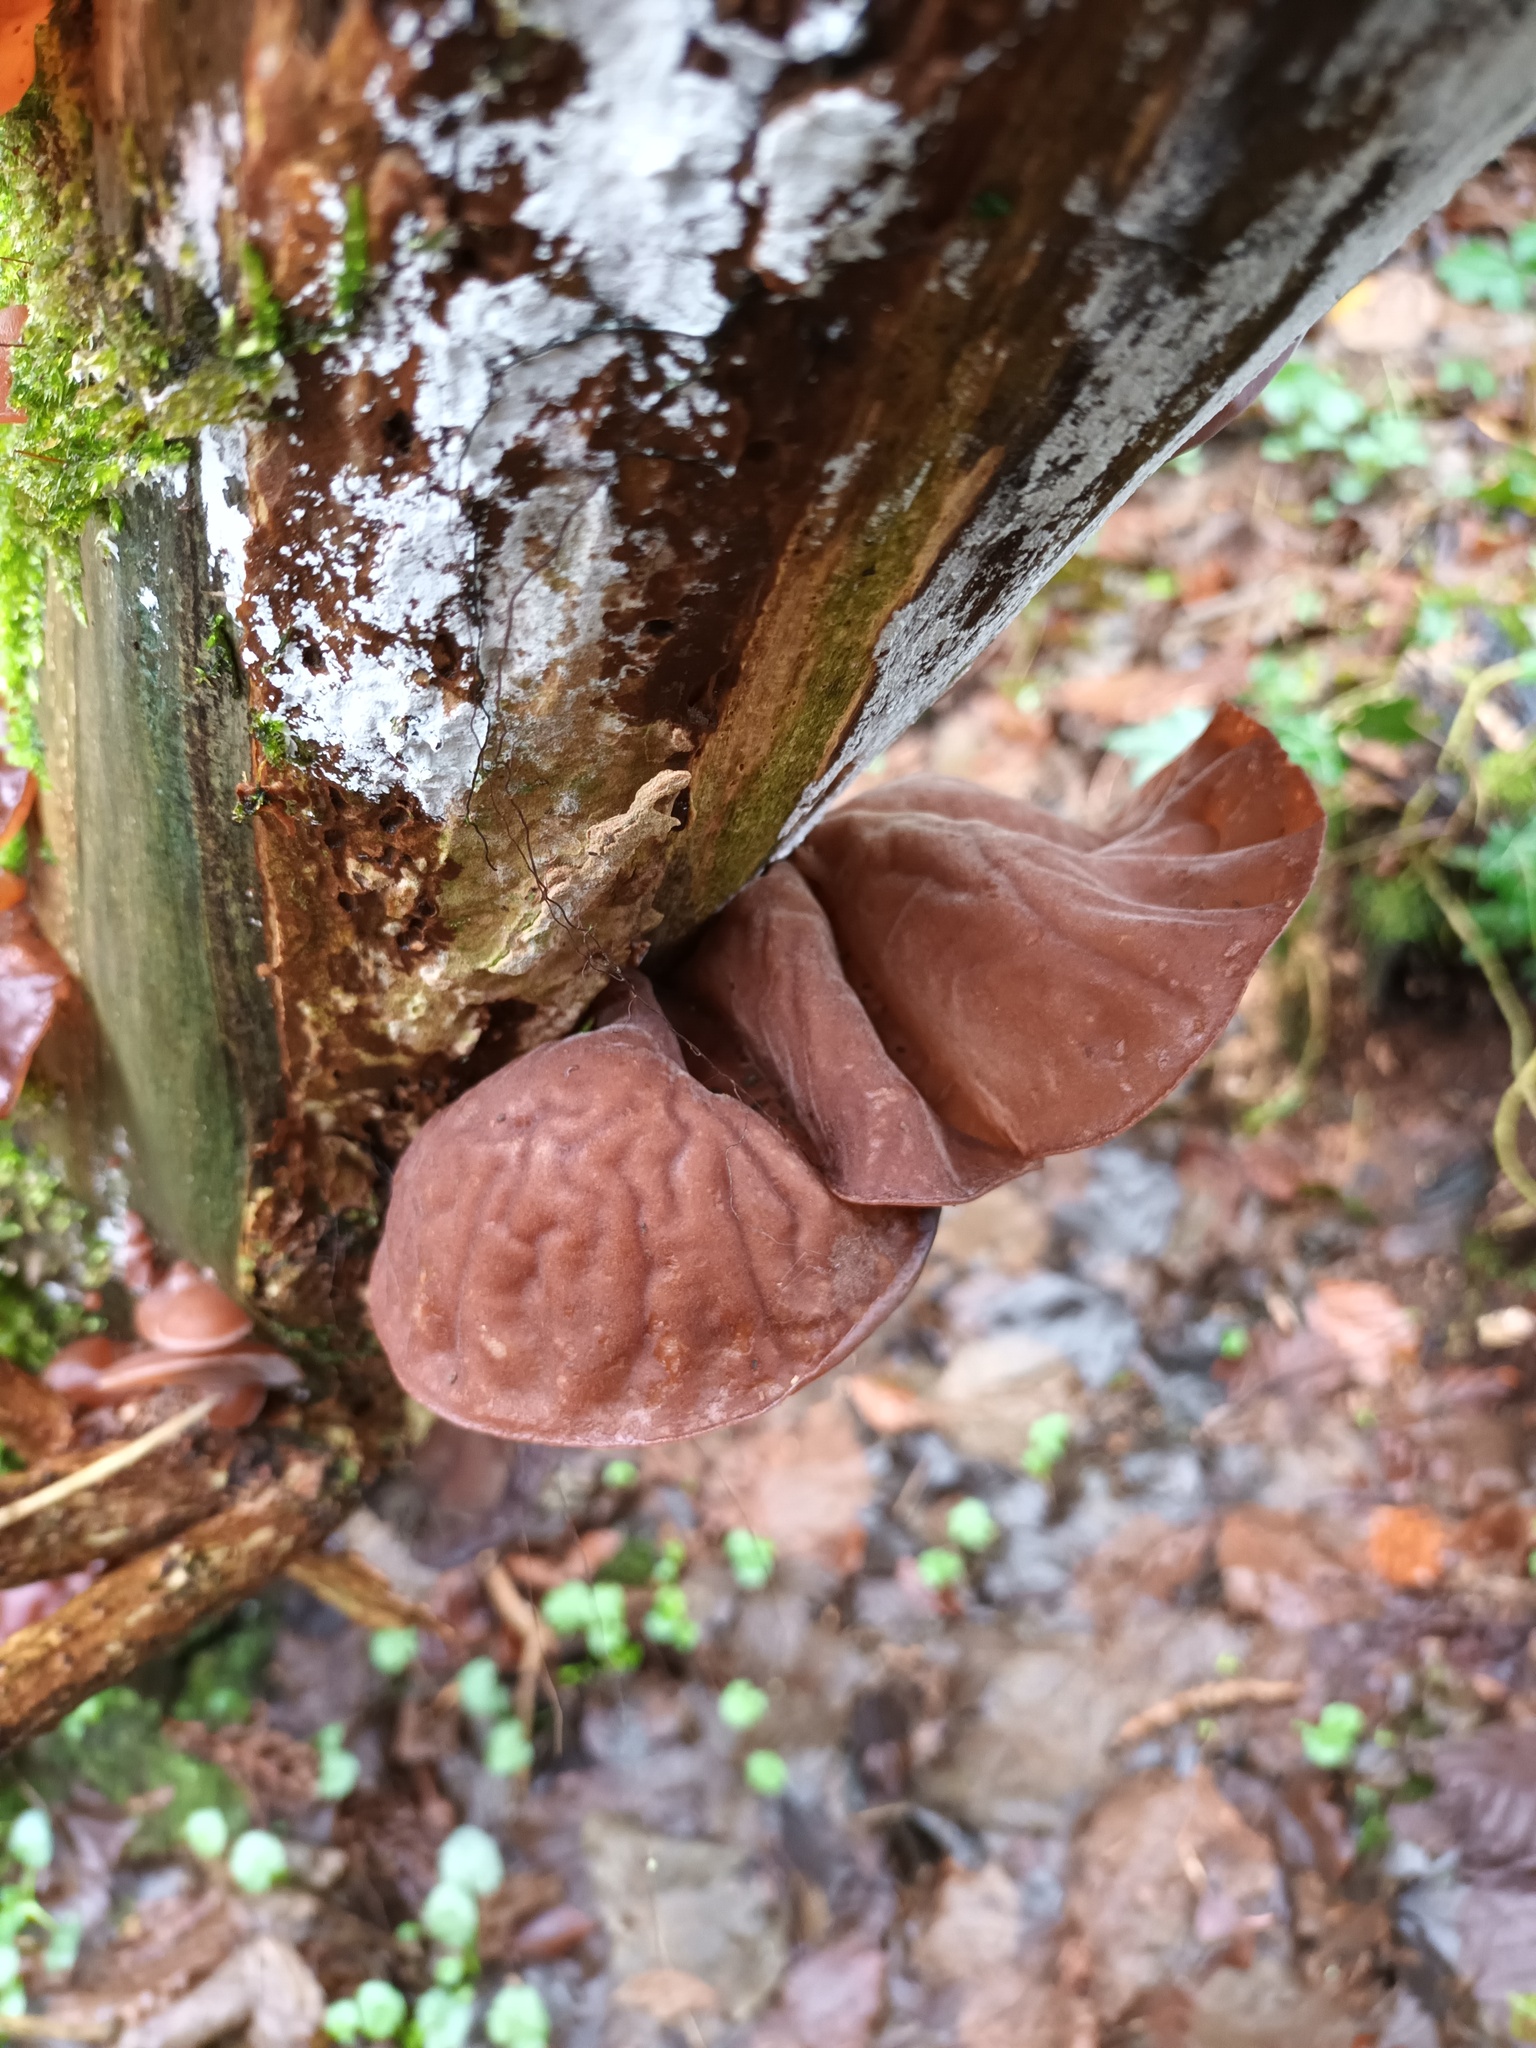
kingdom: Fungi
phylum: Basidiomycota
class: Agaricomycetes
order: Auriculariales
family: Auriculariaceae
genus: Auricularia
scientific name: Auricularia auricula-judae
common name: Jelly ear
